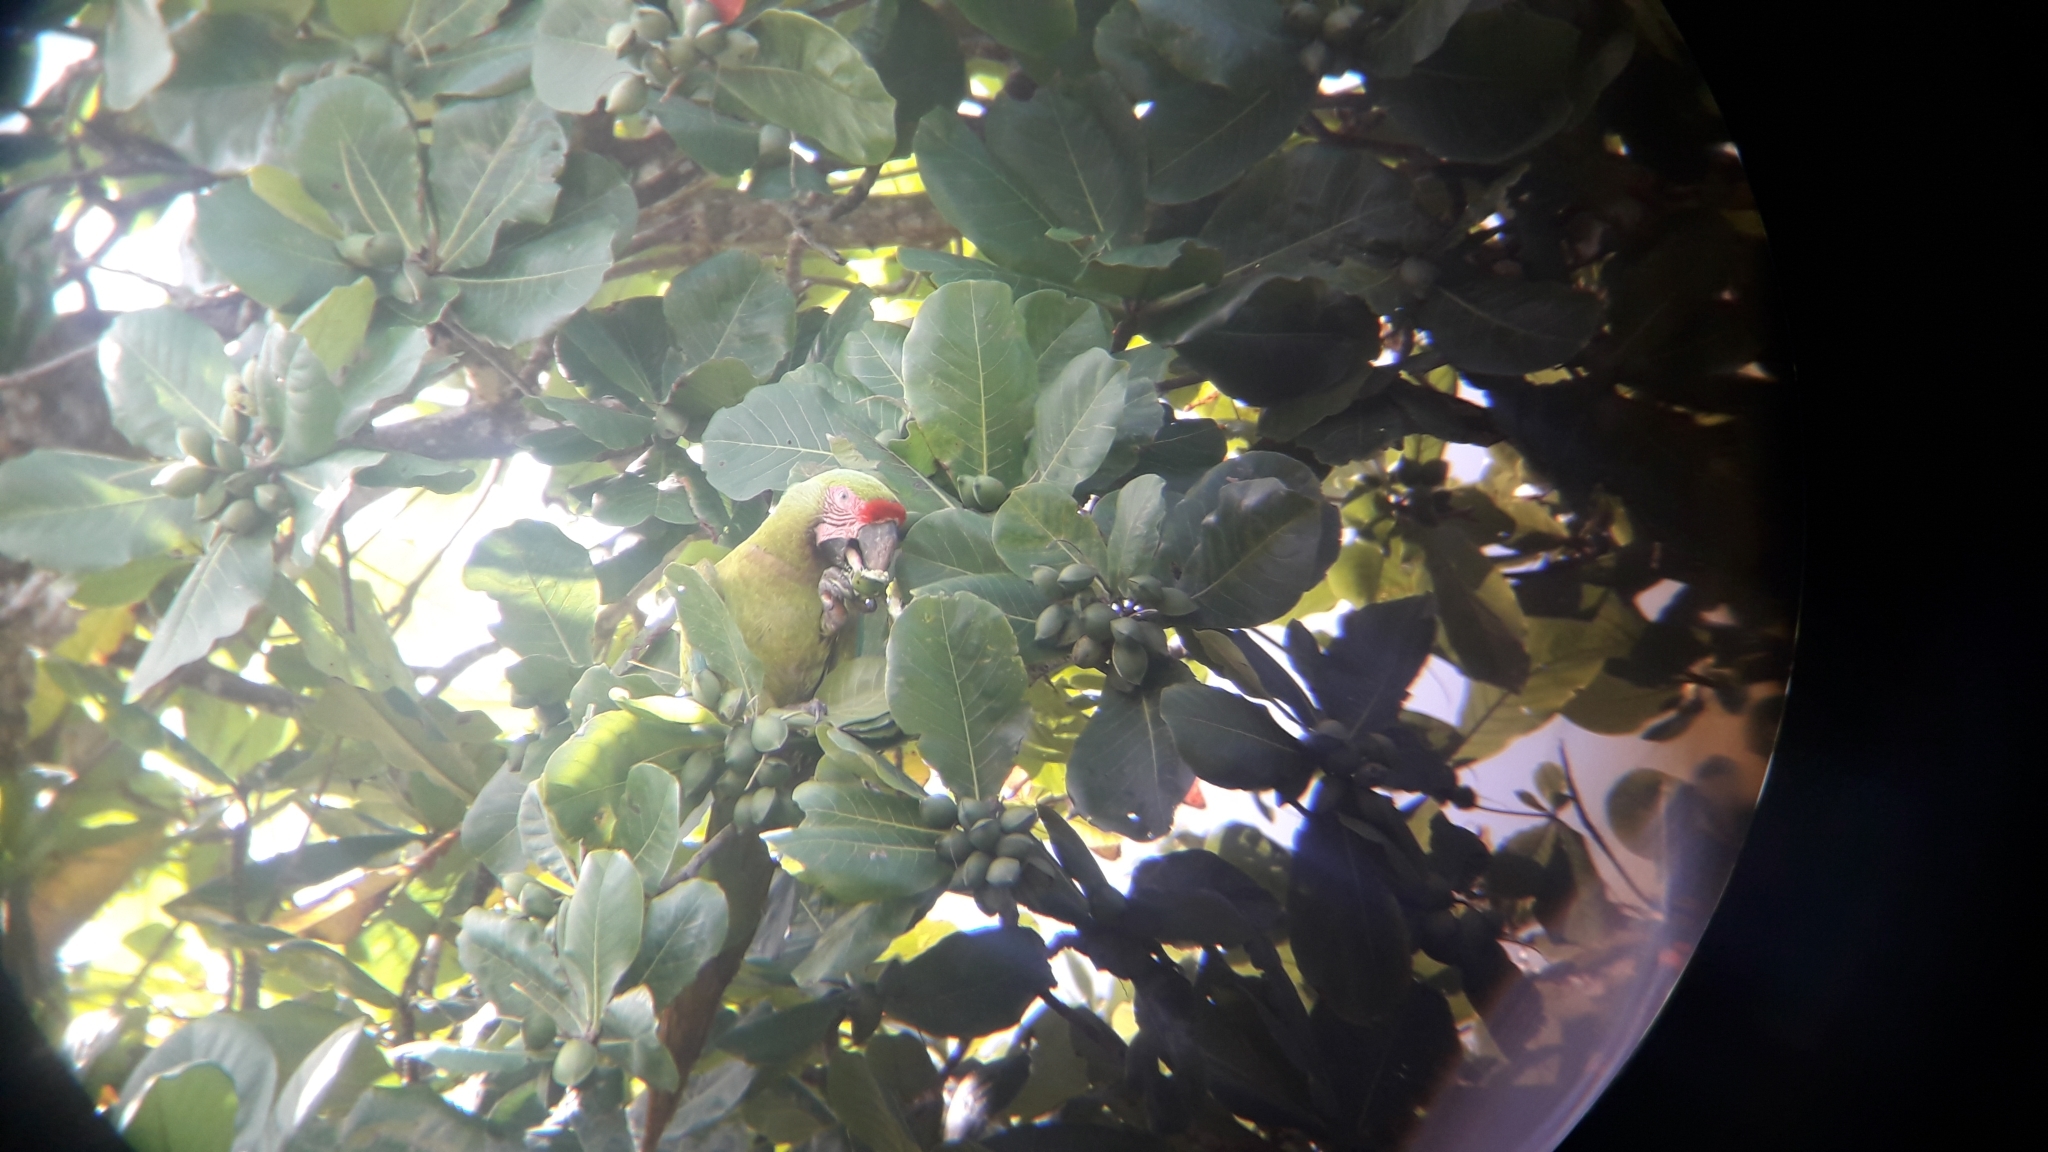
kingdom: Animalia
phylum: Chordata
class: Aves
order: Psittaciformes
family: Psittacidae
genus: Ara
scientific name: Ara ambiguus
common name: Great green macaw
